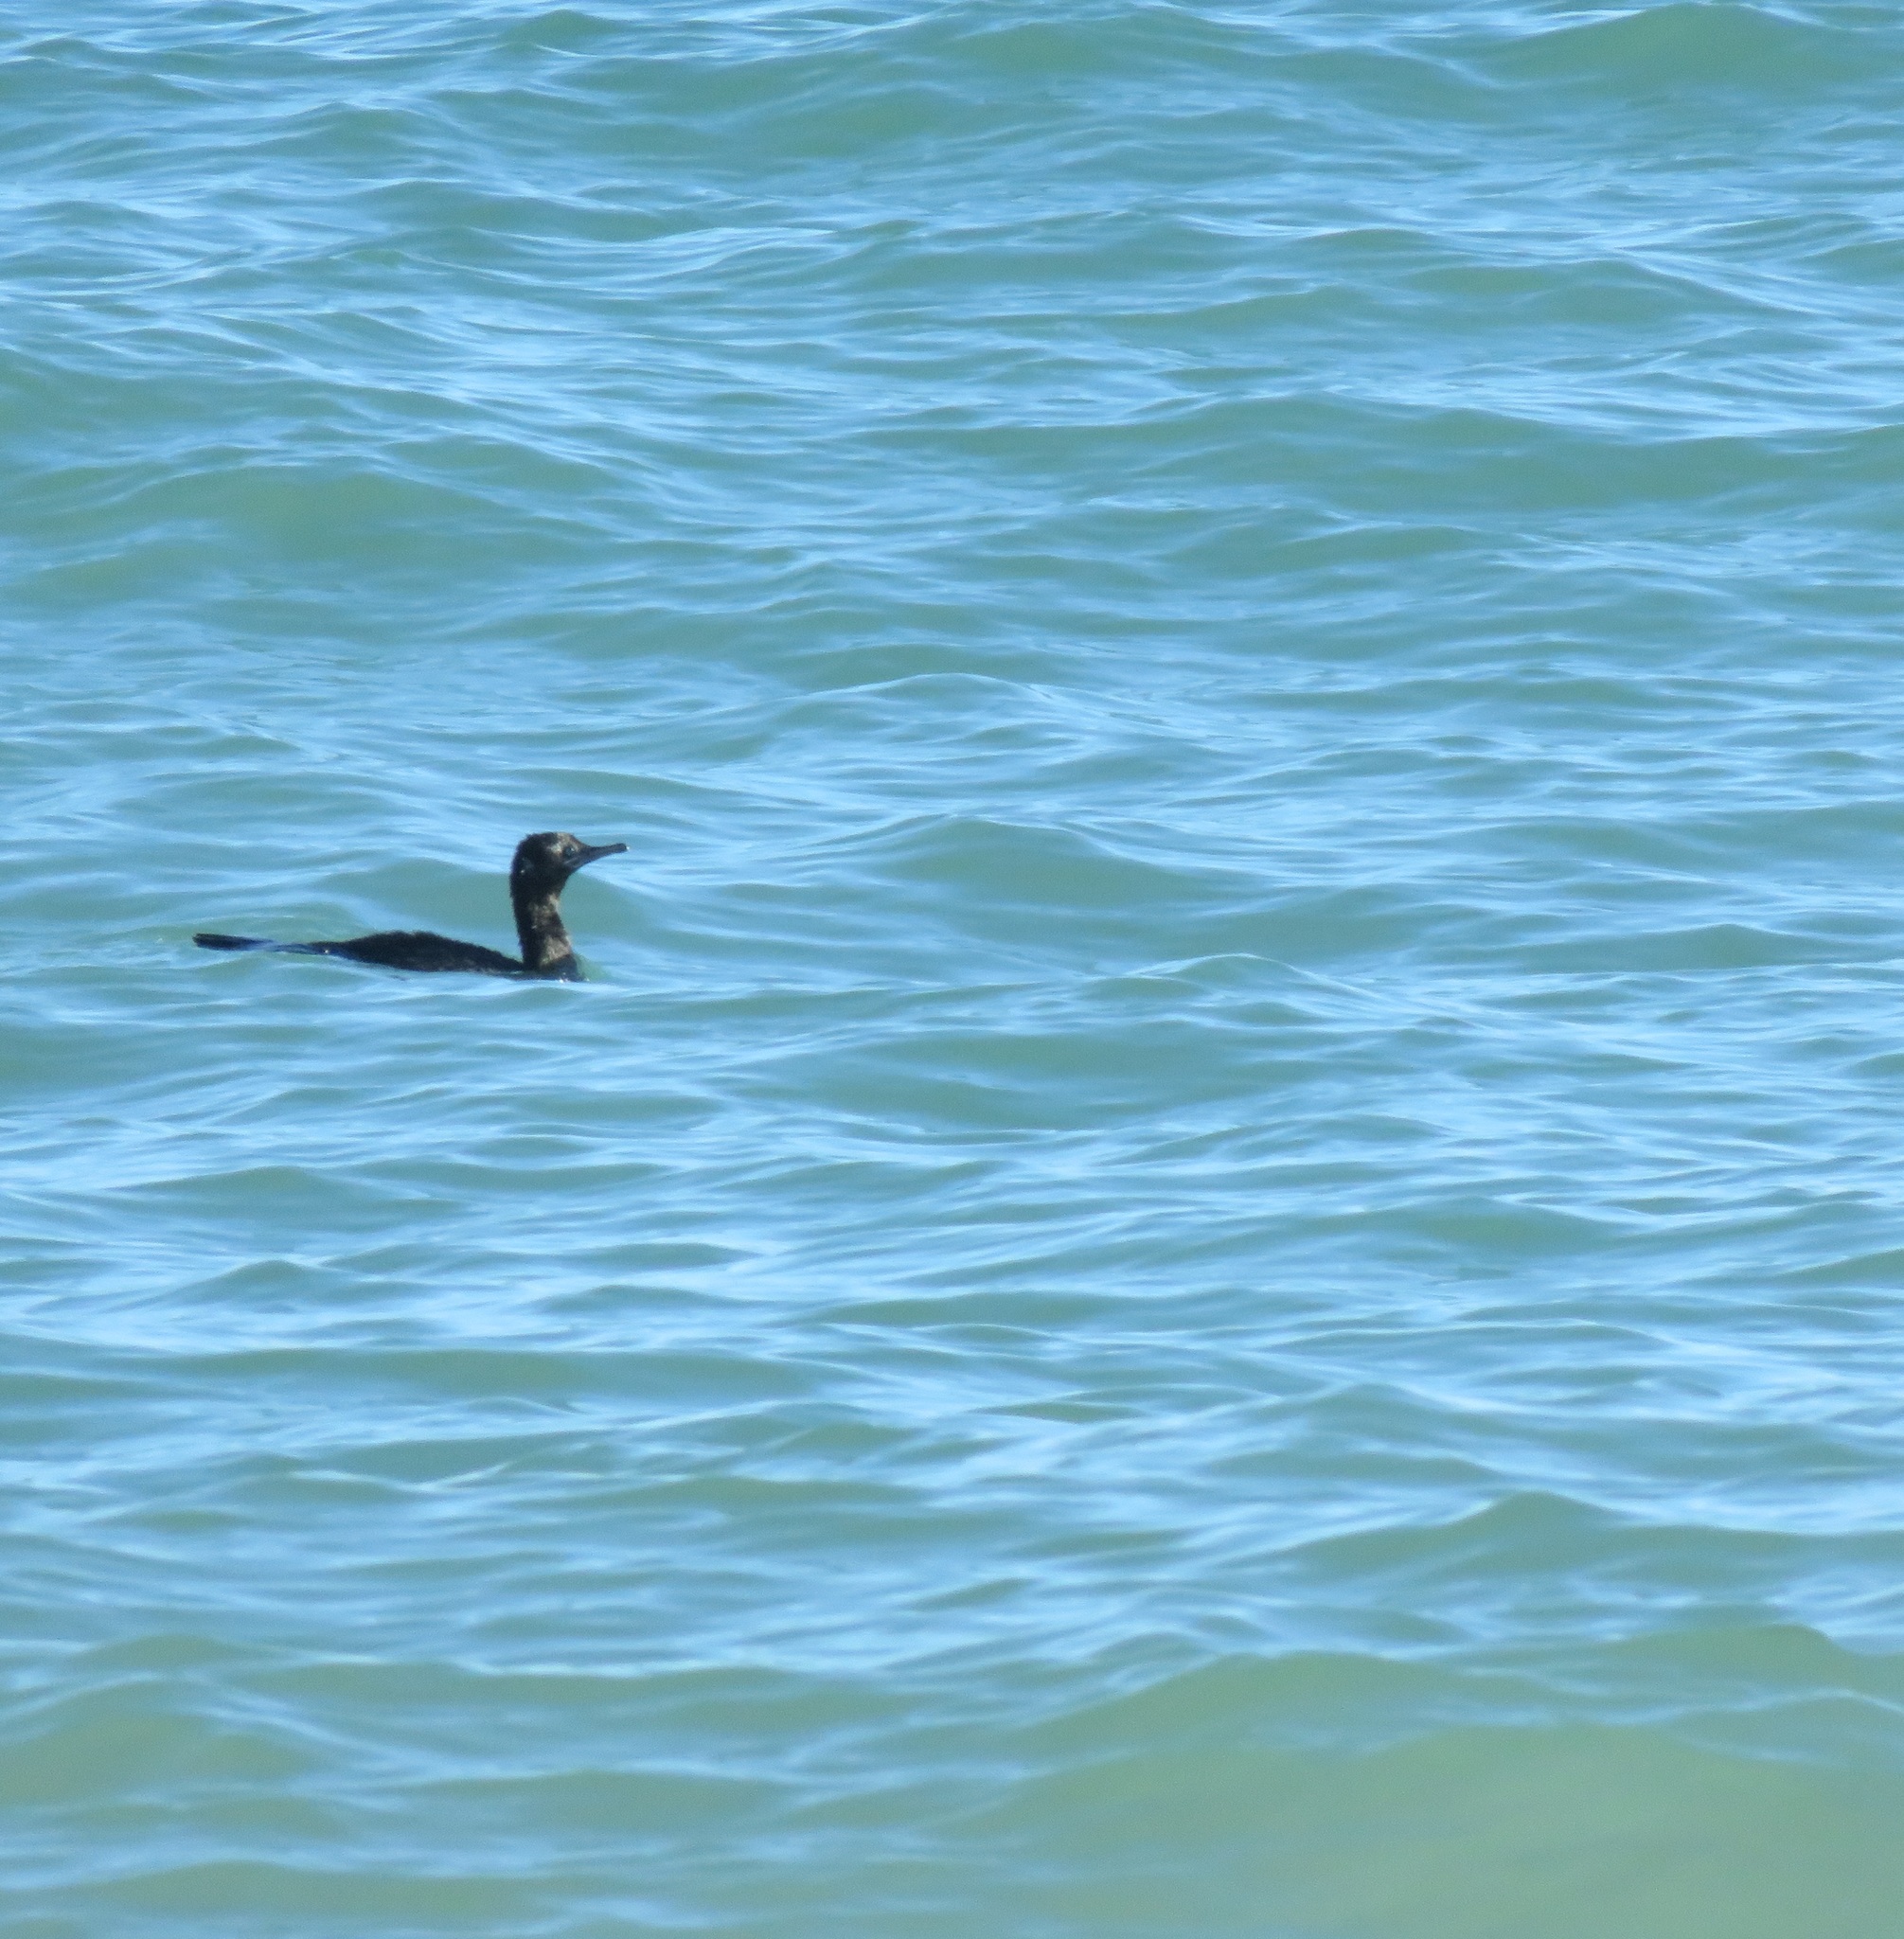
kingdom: Animalia
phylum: Chordata
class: Aves
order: Suliformes
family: Phalacrocoracidae
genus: Phalacrocorax
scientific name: Phalacrocorax sulcirostris
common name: Little black cormorant
